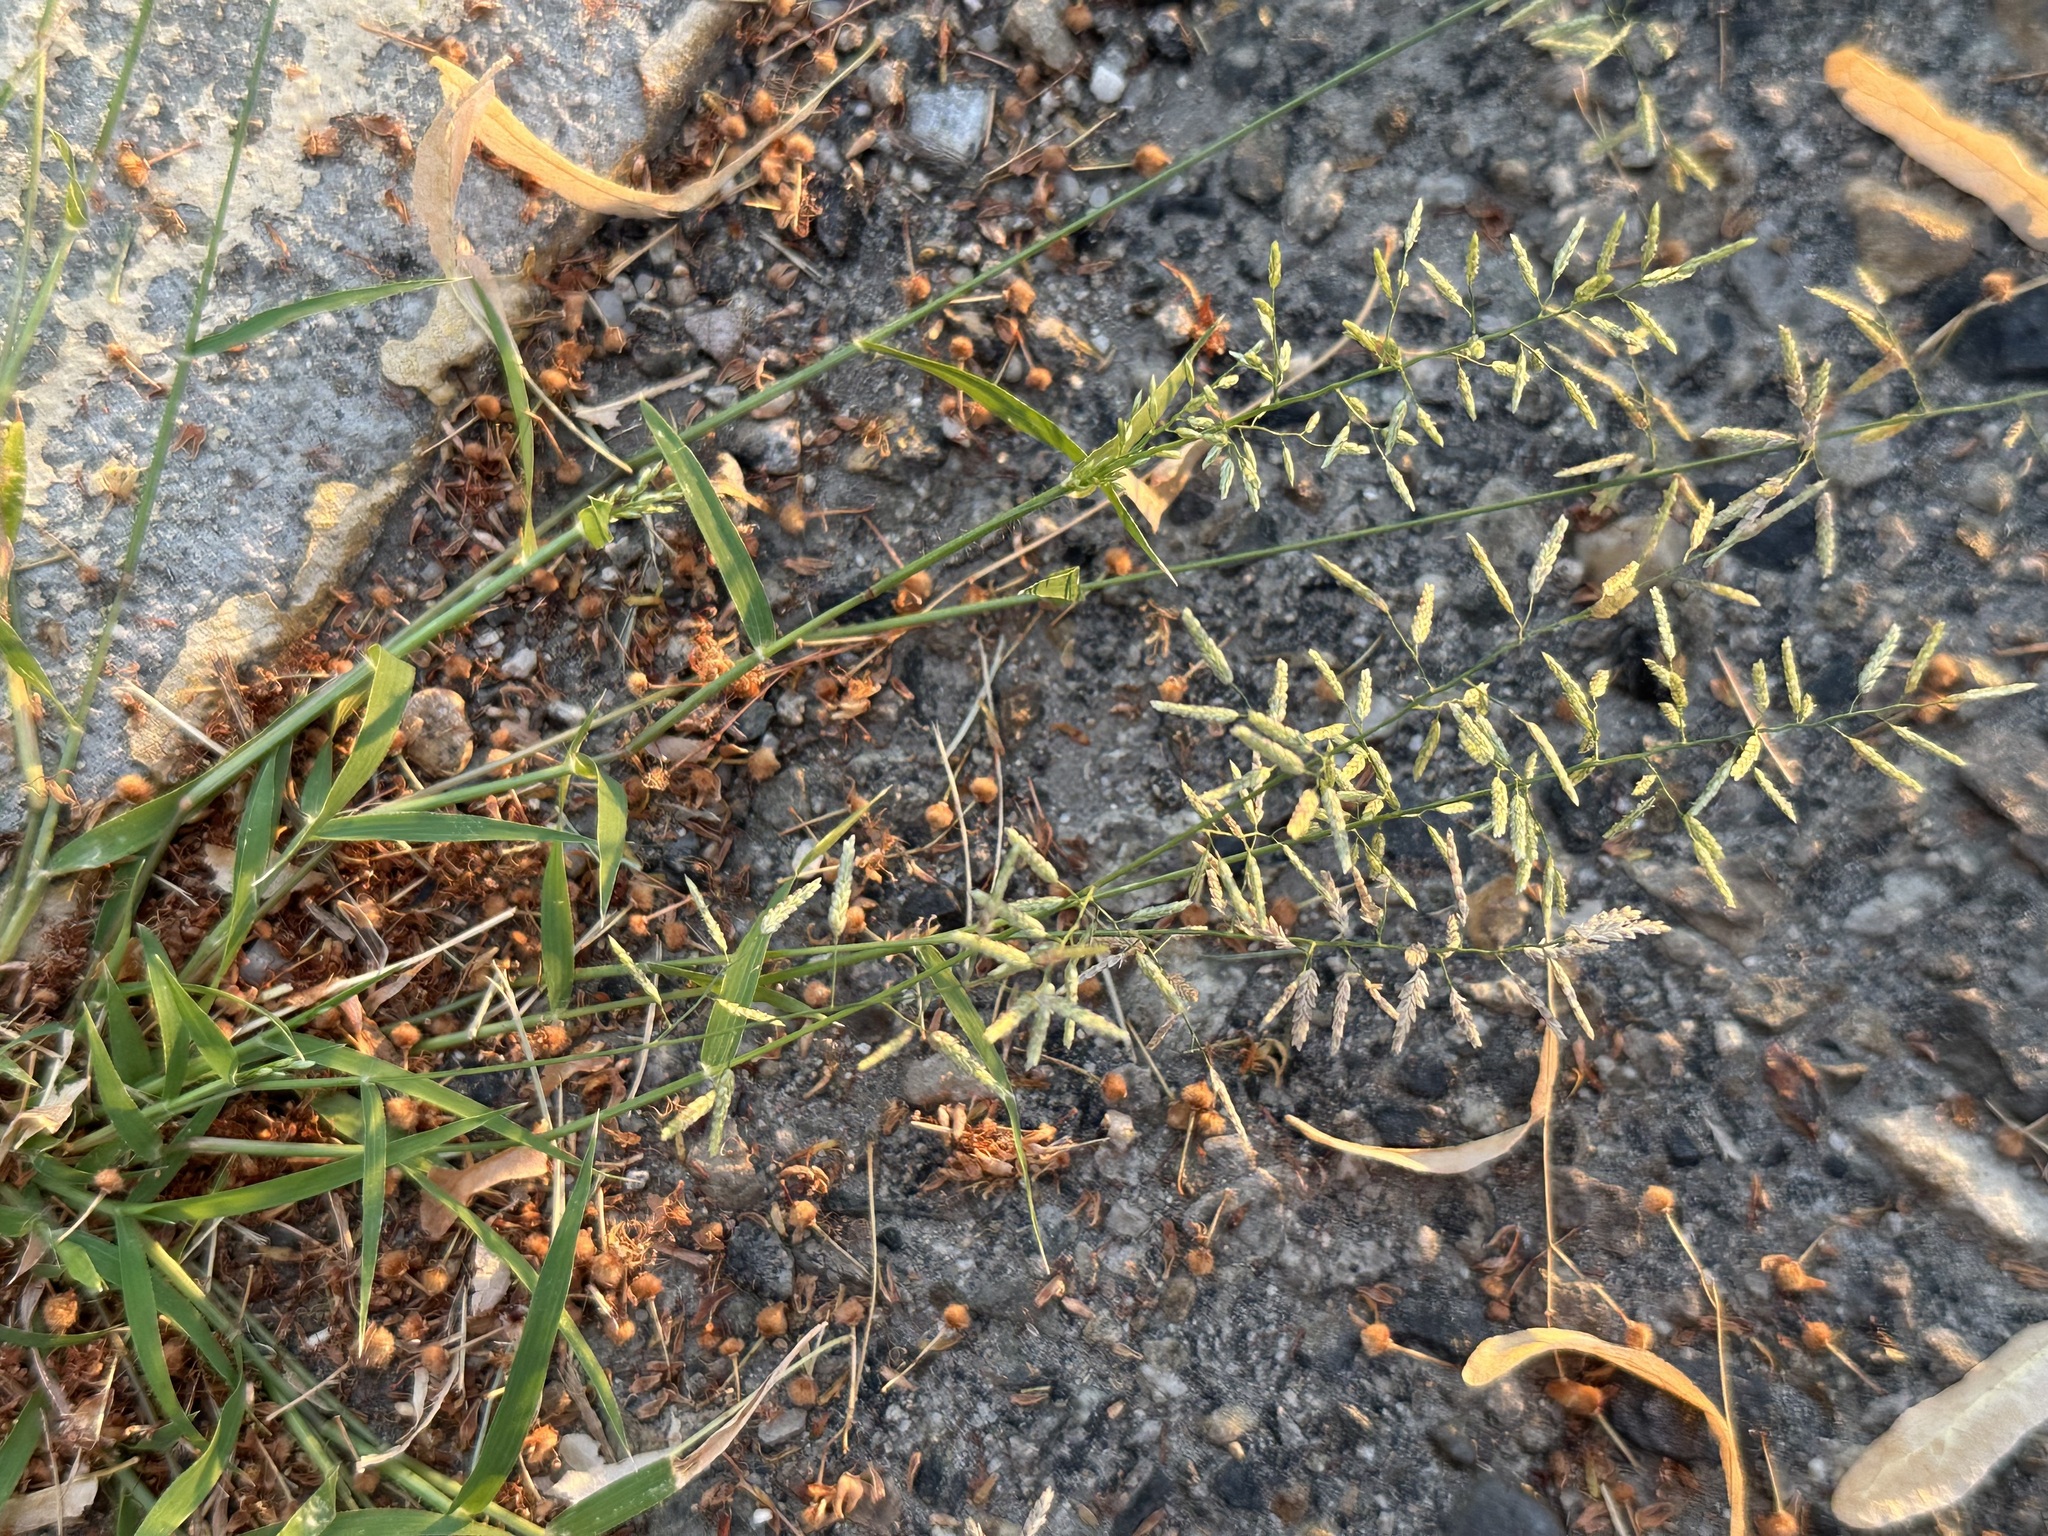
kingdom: Plantae
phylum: Tracheophyta
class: Liliopsida
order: Poales
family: Poaceae
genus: Eragrostis
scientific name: Eragrostis cilianensis
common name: Stinkgrass
